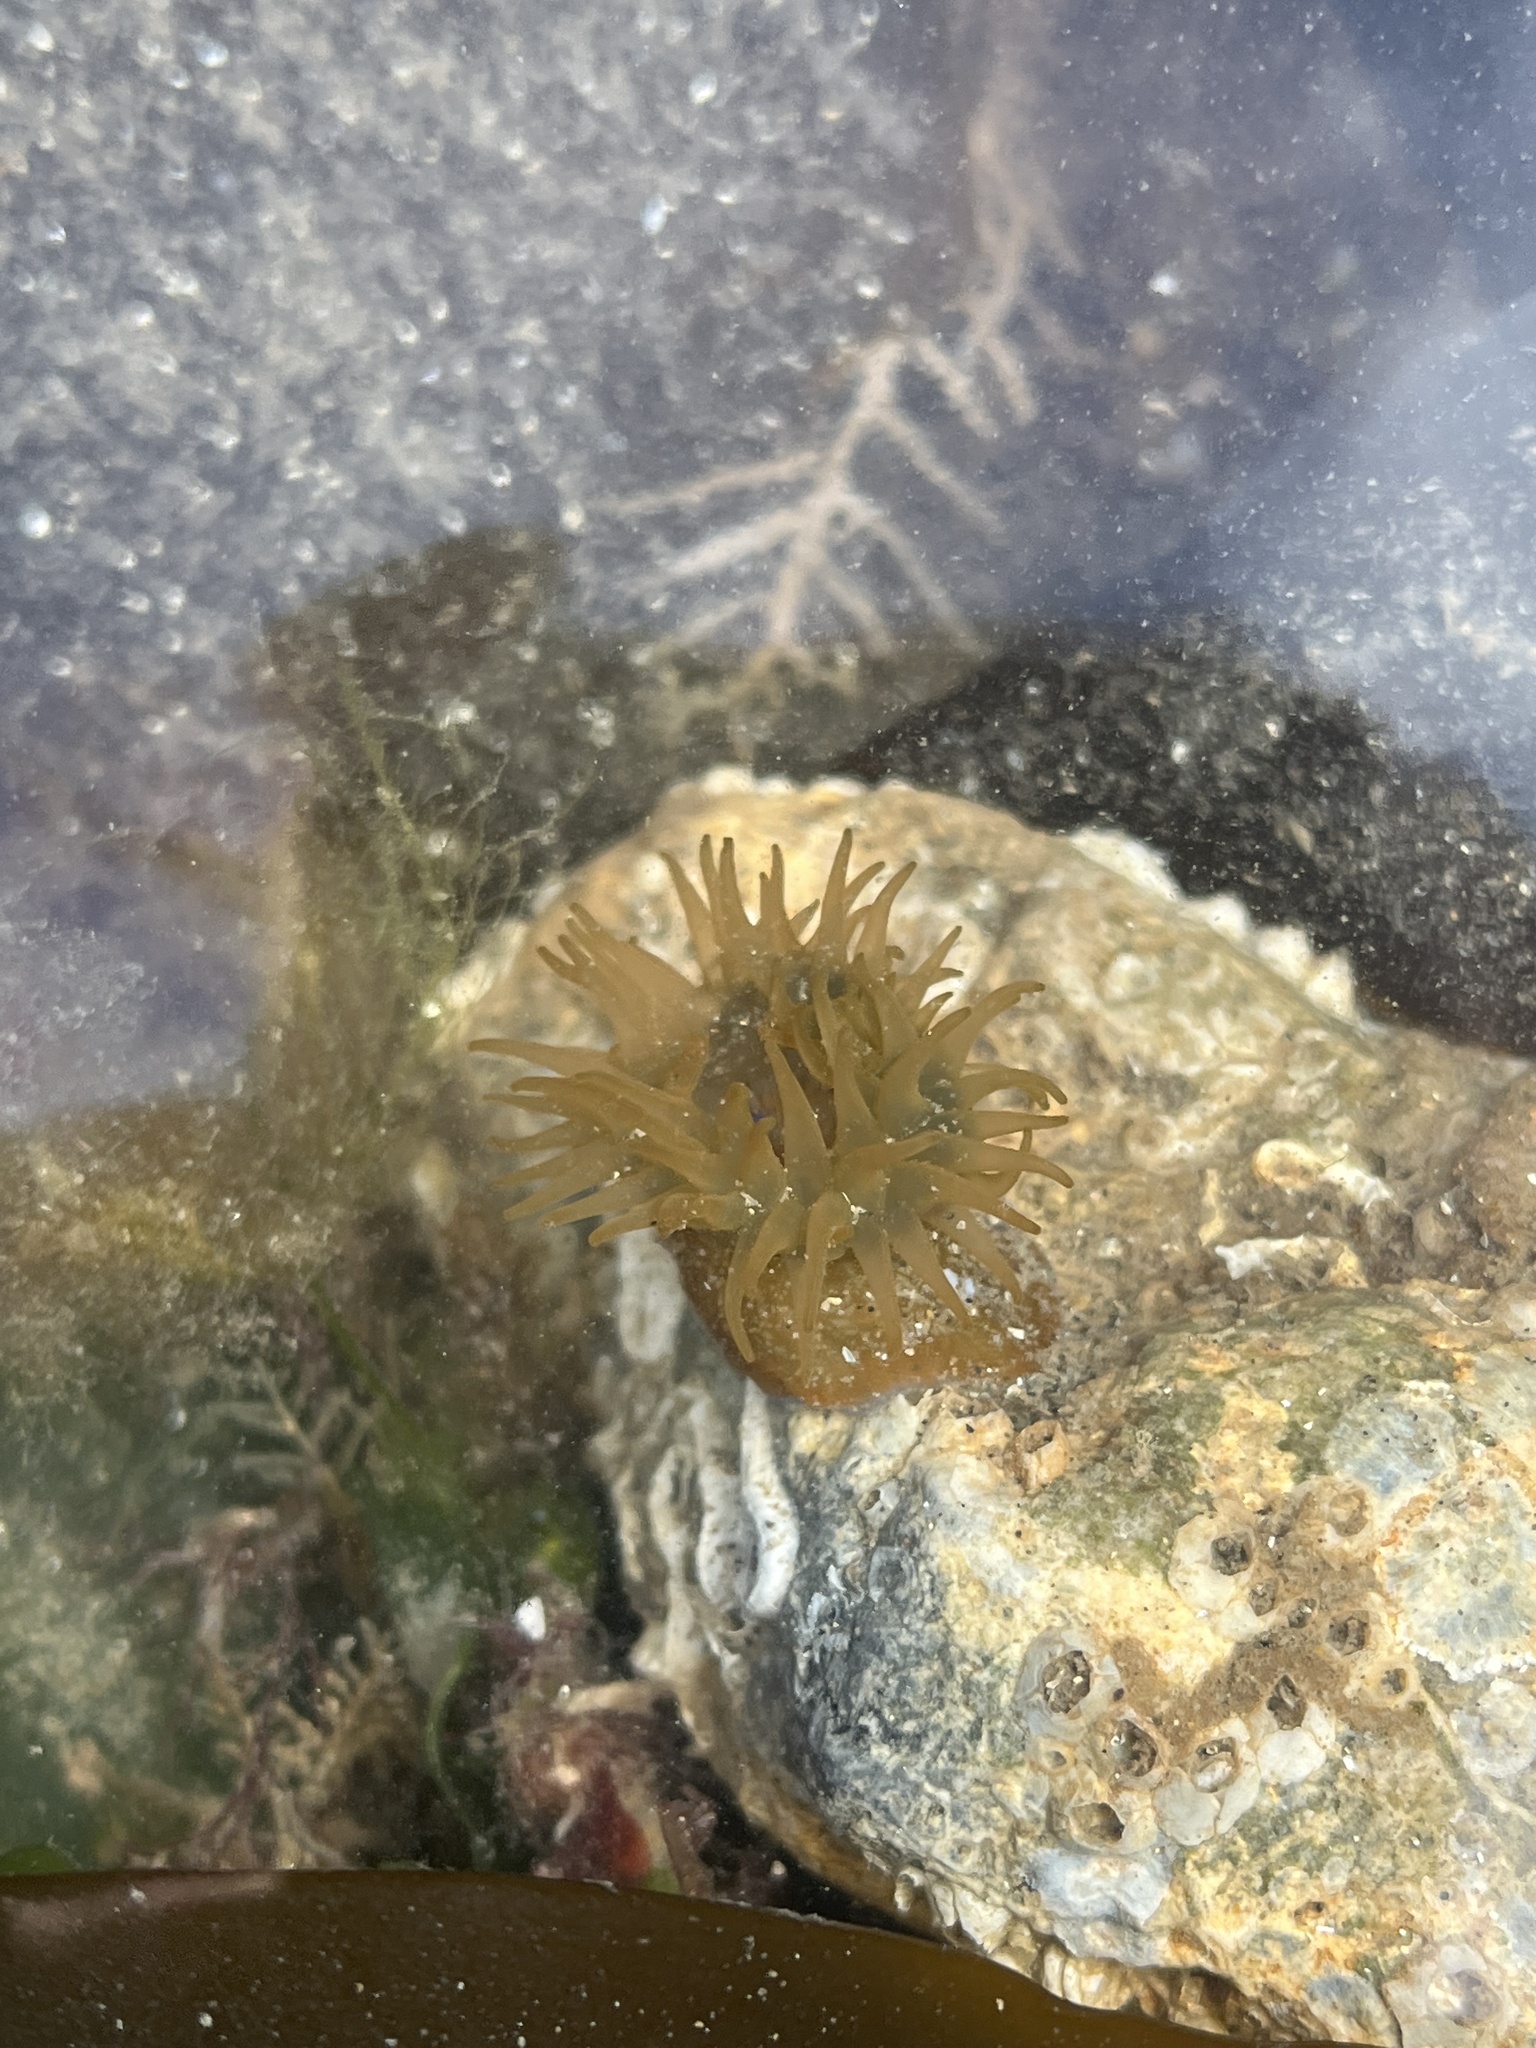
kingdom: Animalia
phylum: Cnidaria
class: Anthozoa
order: Actiniaria
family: Actiniidae
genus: Actinia
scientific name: Actinia equina
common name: Beadlet anemone
